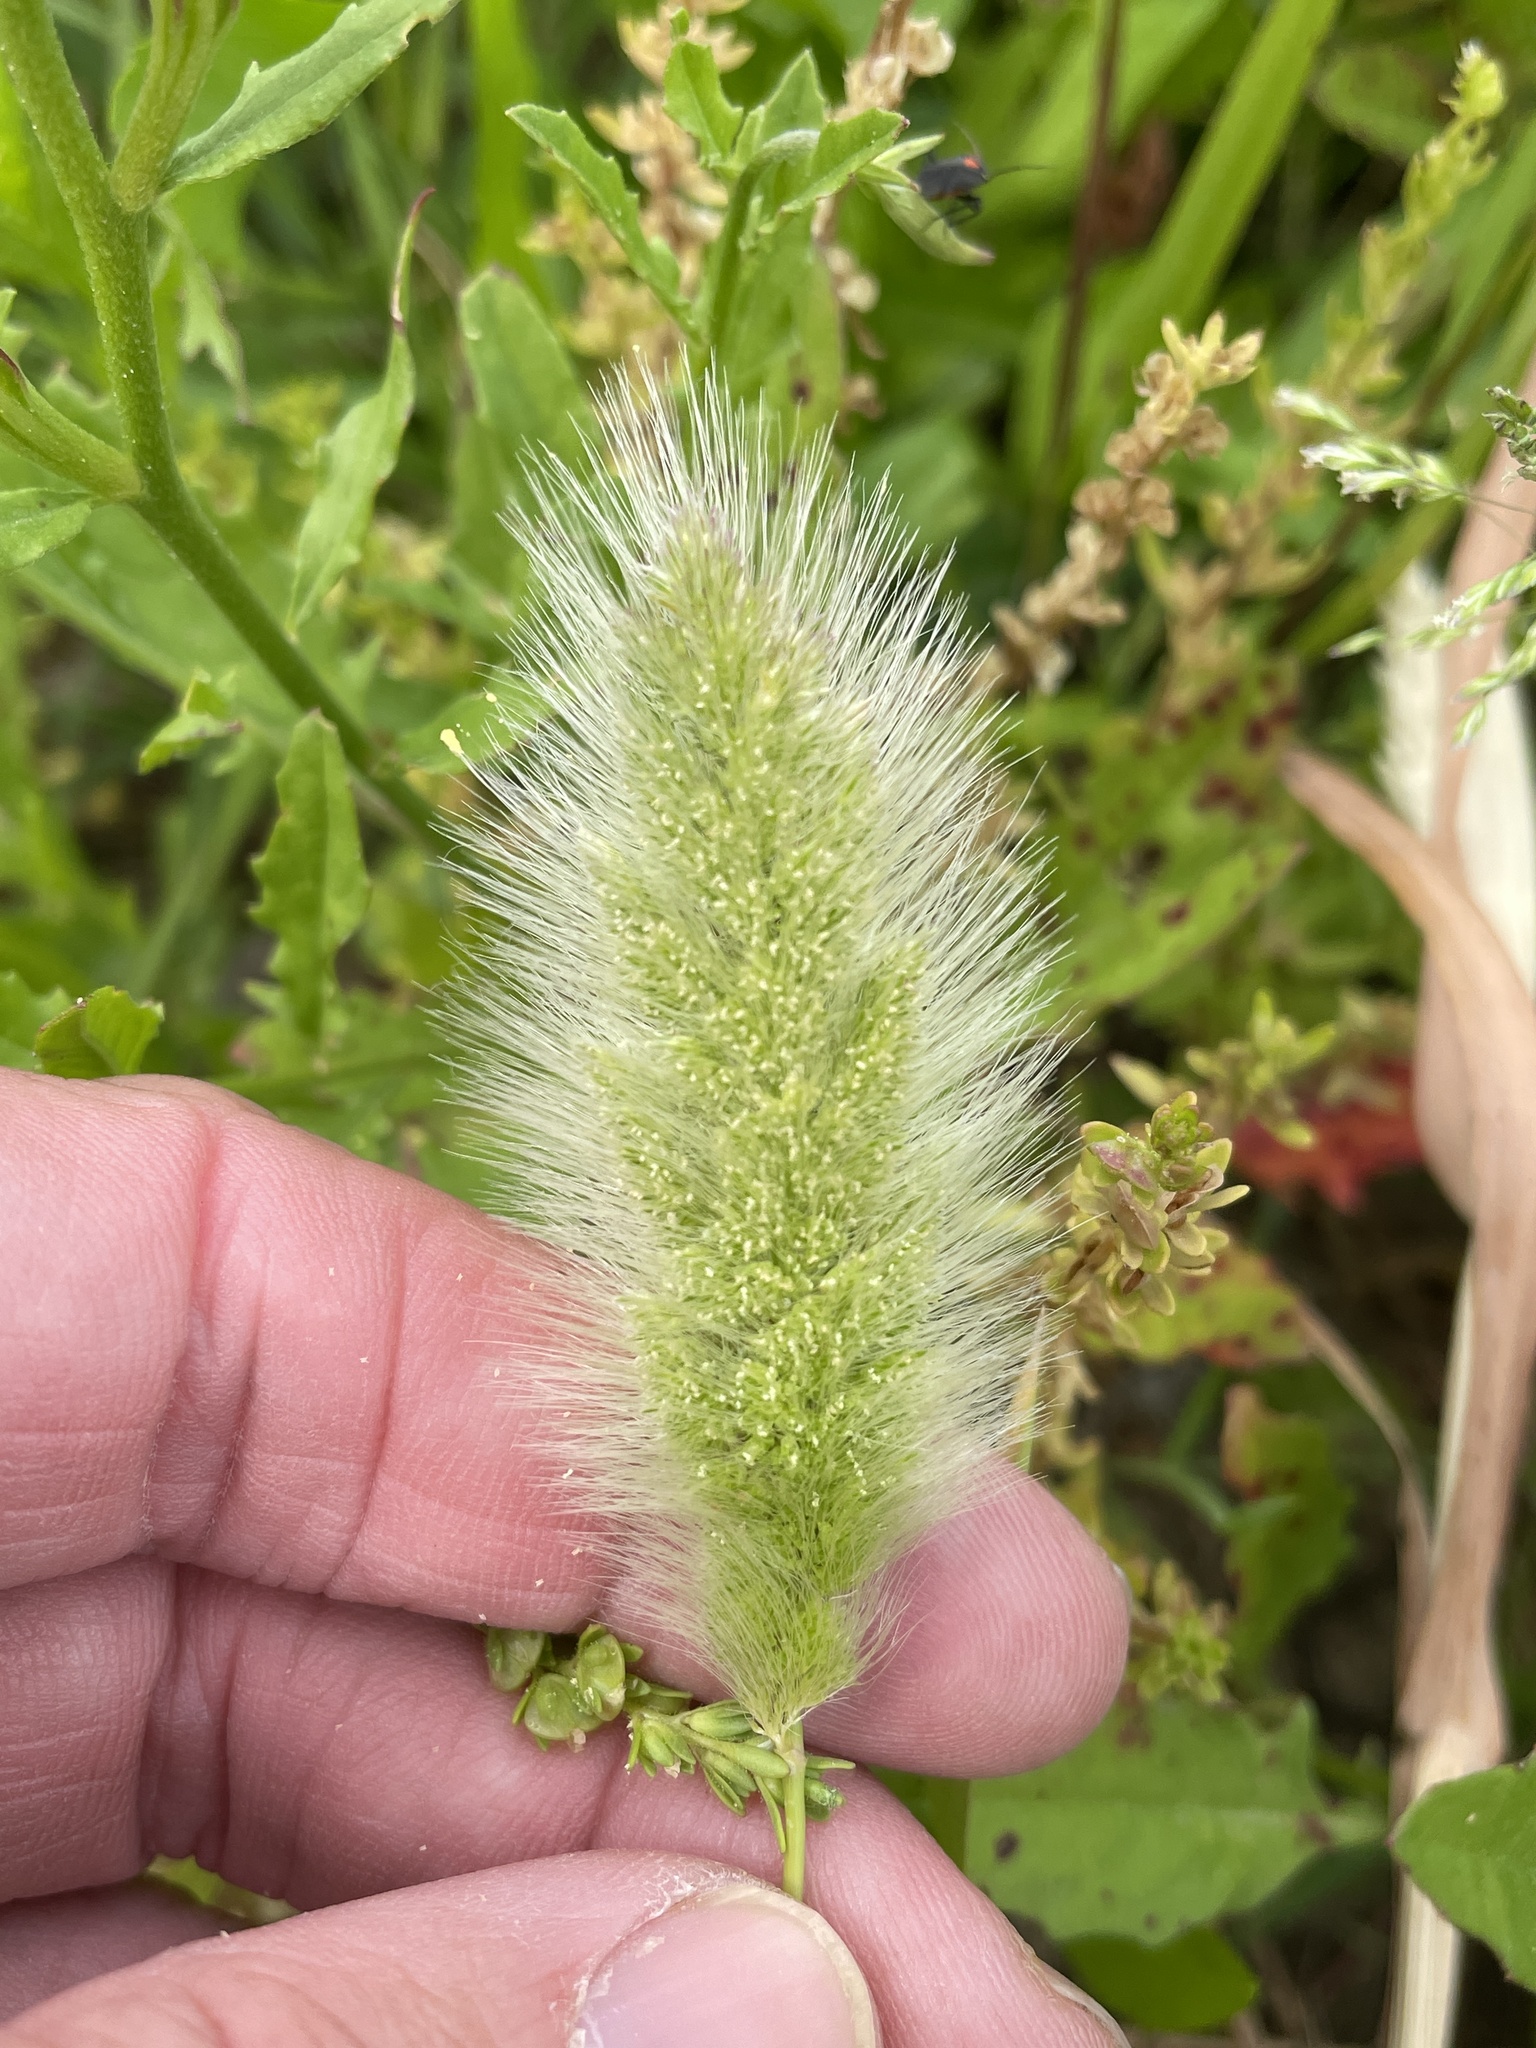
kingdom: Plantae
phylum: Tracheophyta
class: Liliopsida
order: Poales
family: Poaceae
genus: Polypogon
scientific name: Polypogon monspeliensis
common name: Annual rabbitsfoot grass
